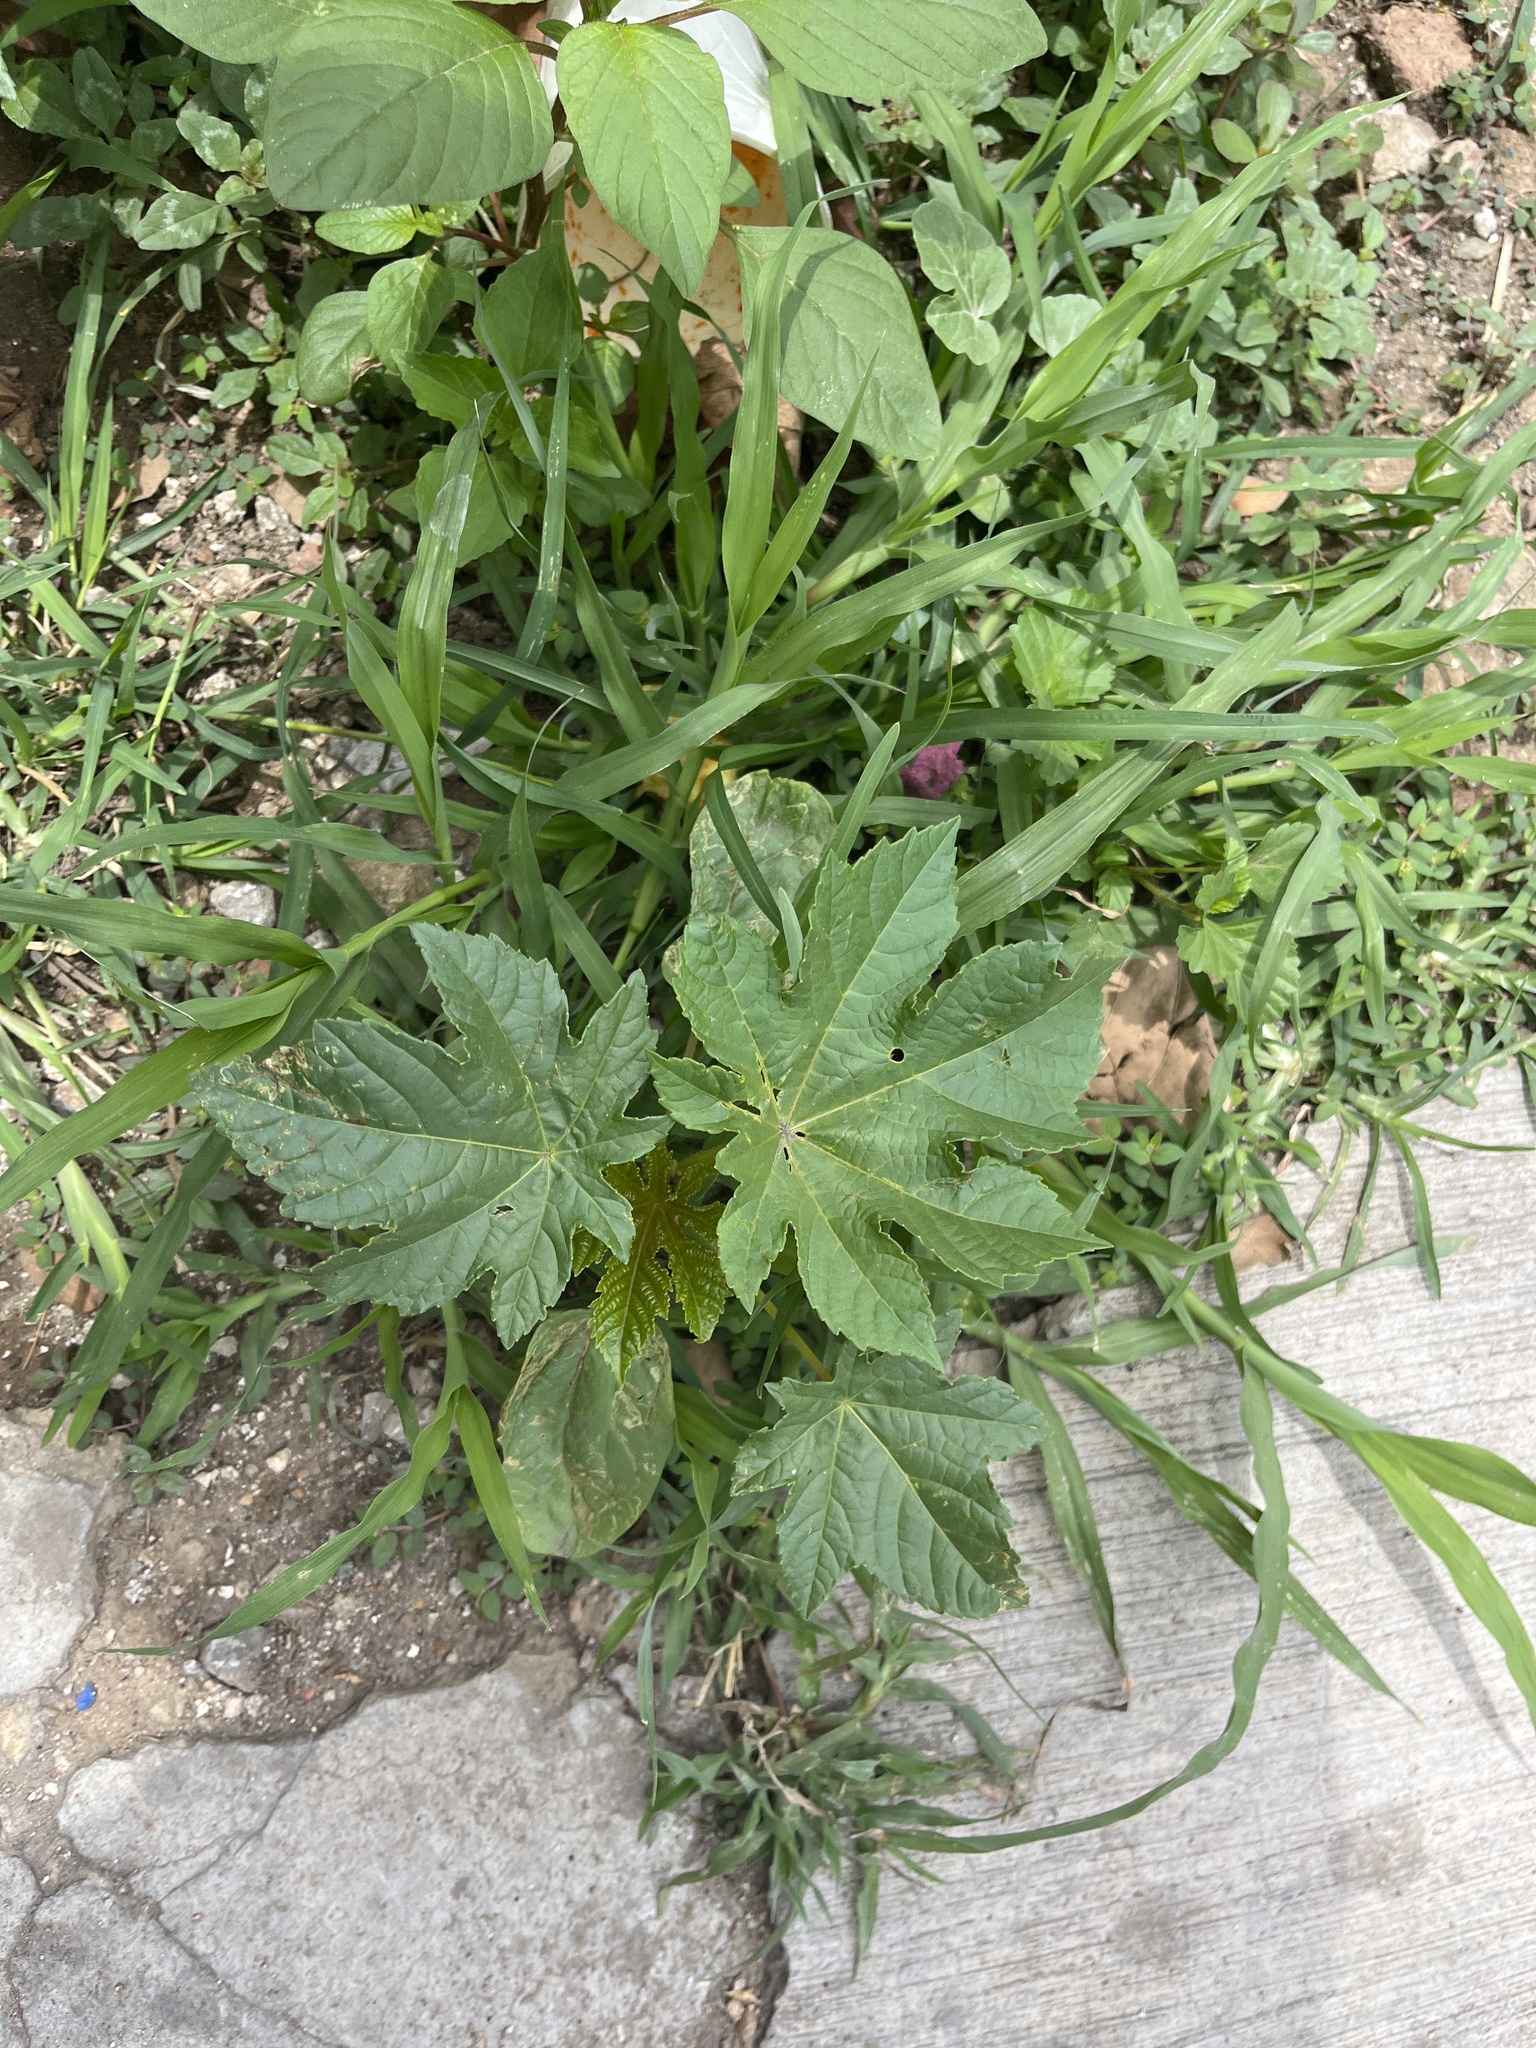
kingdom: Plantae
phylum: Tracheophyta
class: Magnoliopsida
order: Malpighiales
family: Euphorbiaceae
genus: Ricinus
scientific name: Ricinus communis
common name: Castor-oil-plant
